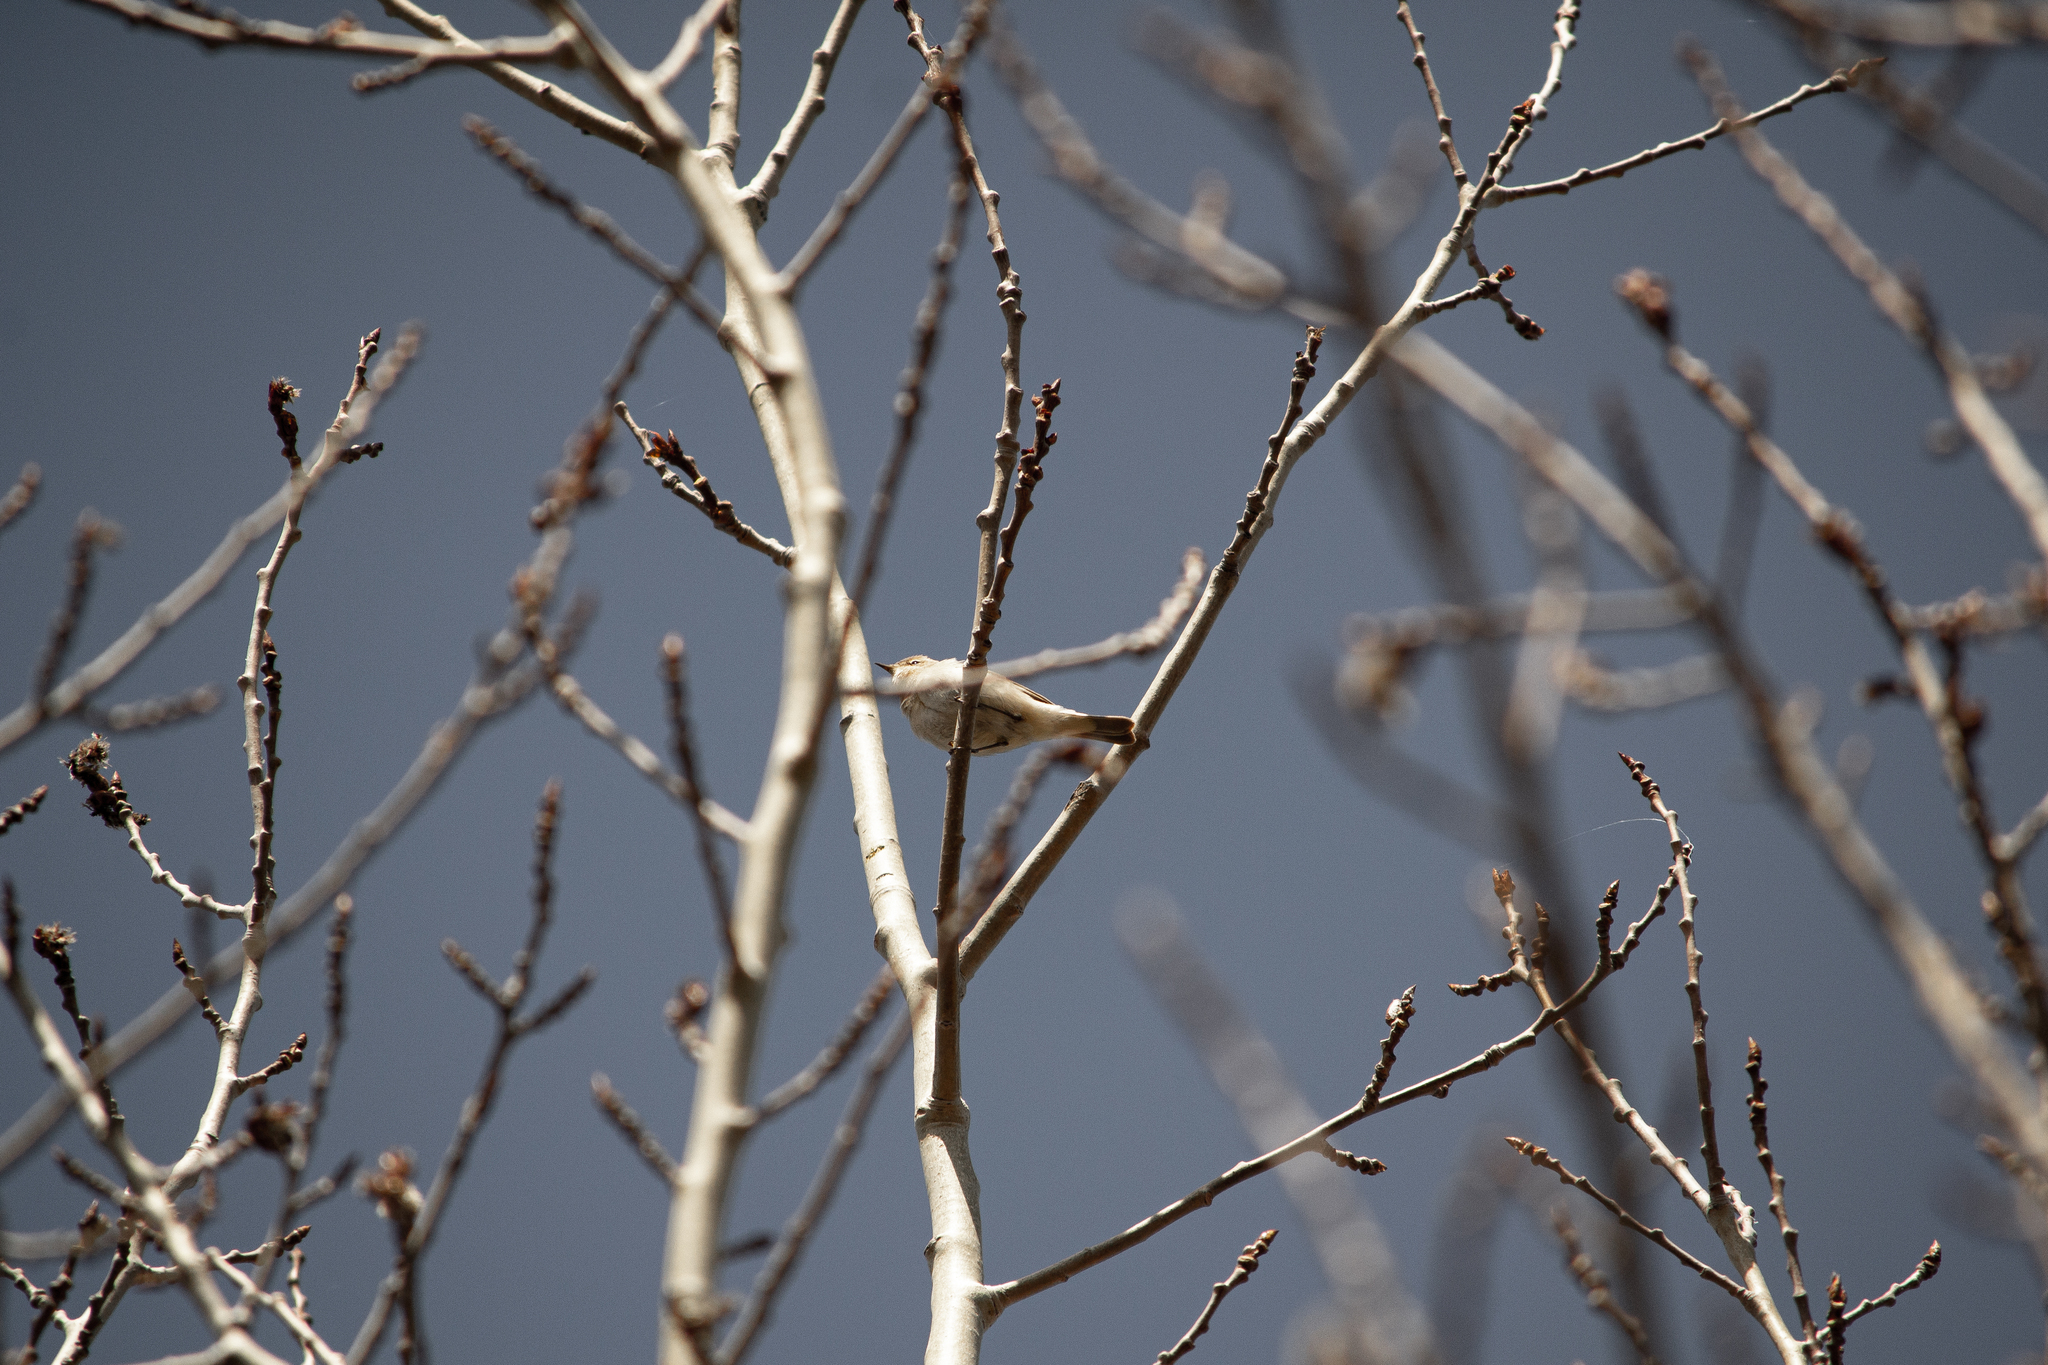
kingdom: Animalia
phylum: Chordata
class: Aves
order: Passeriformes
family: Phylloscopidae
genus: Phylloscopus
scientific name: Phylloscopus collybita
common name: Common chiffchaff
